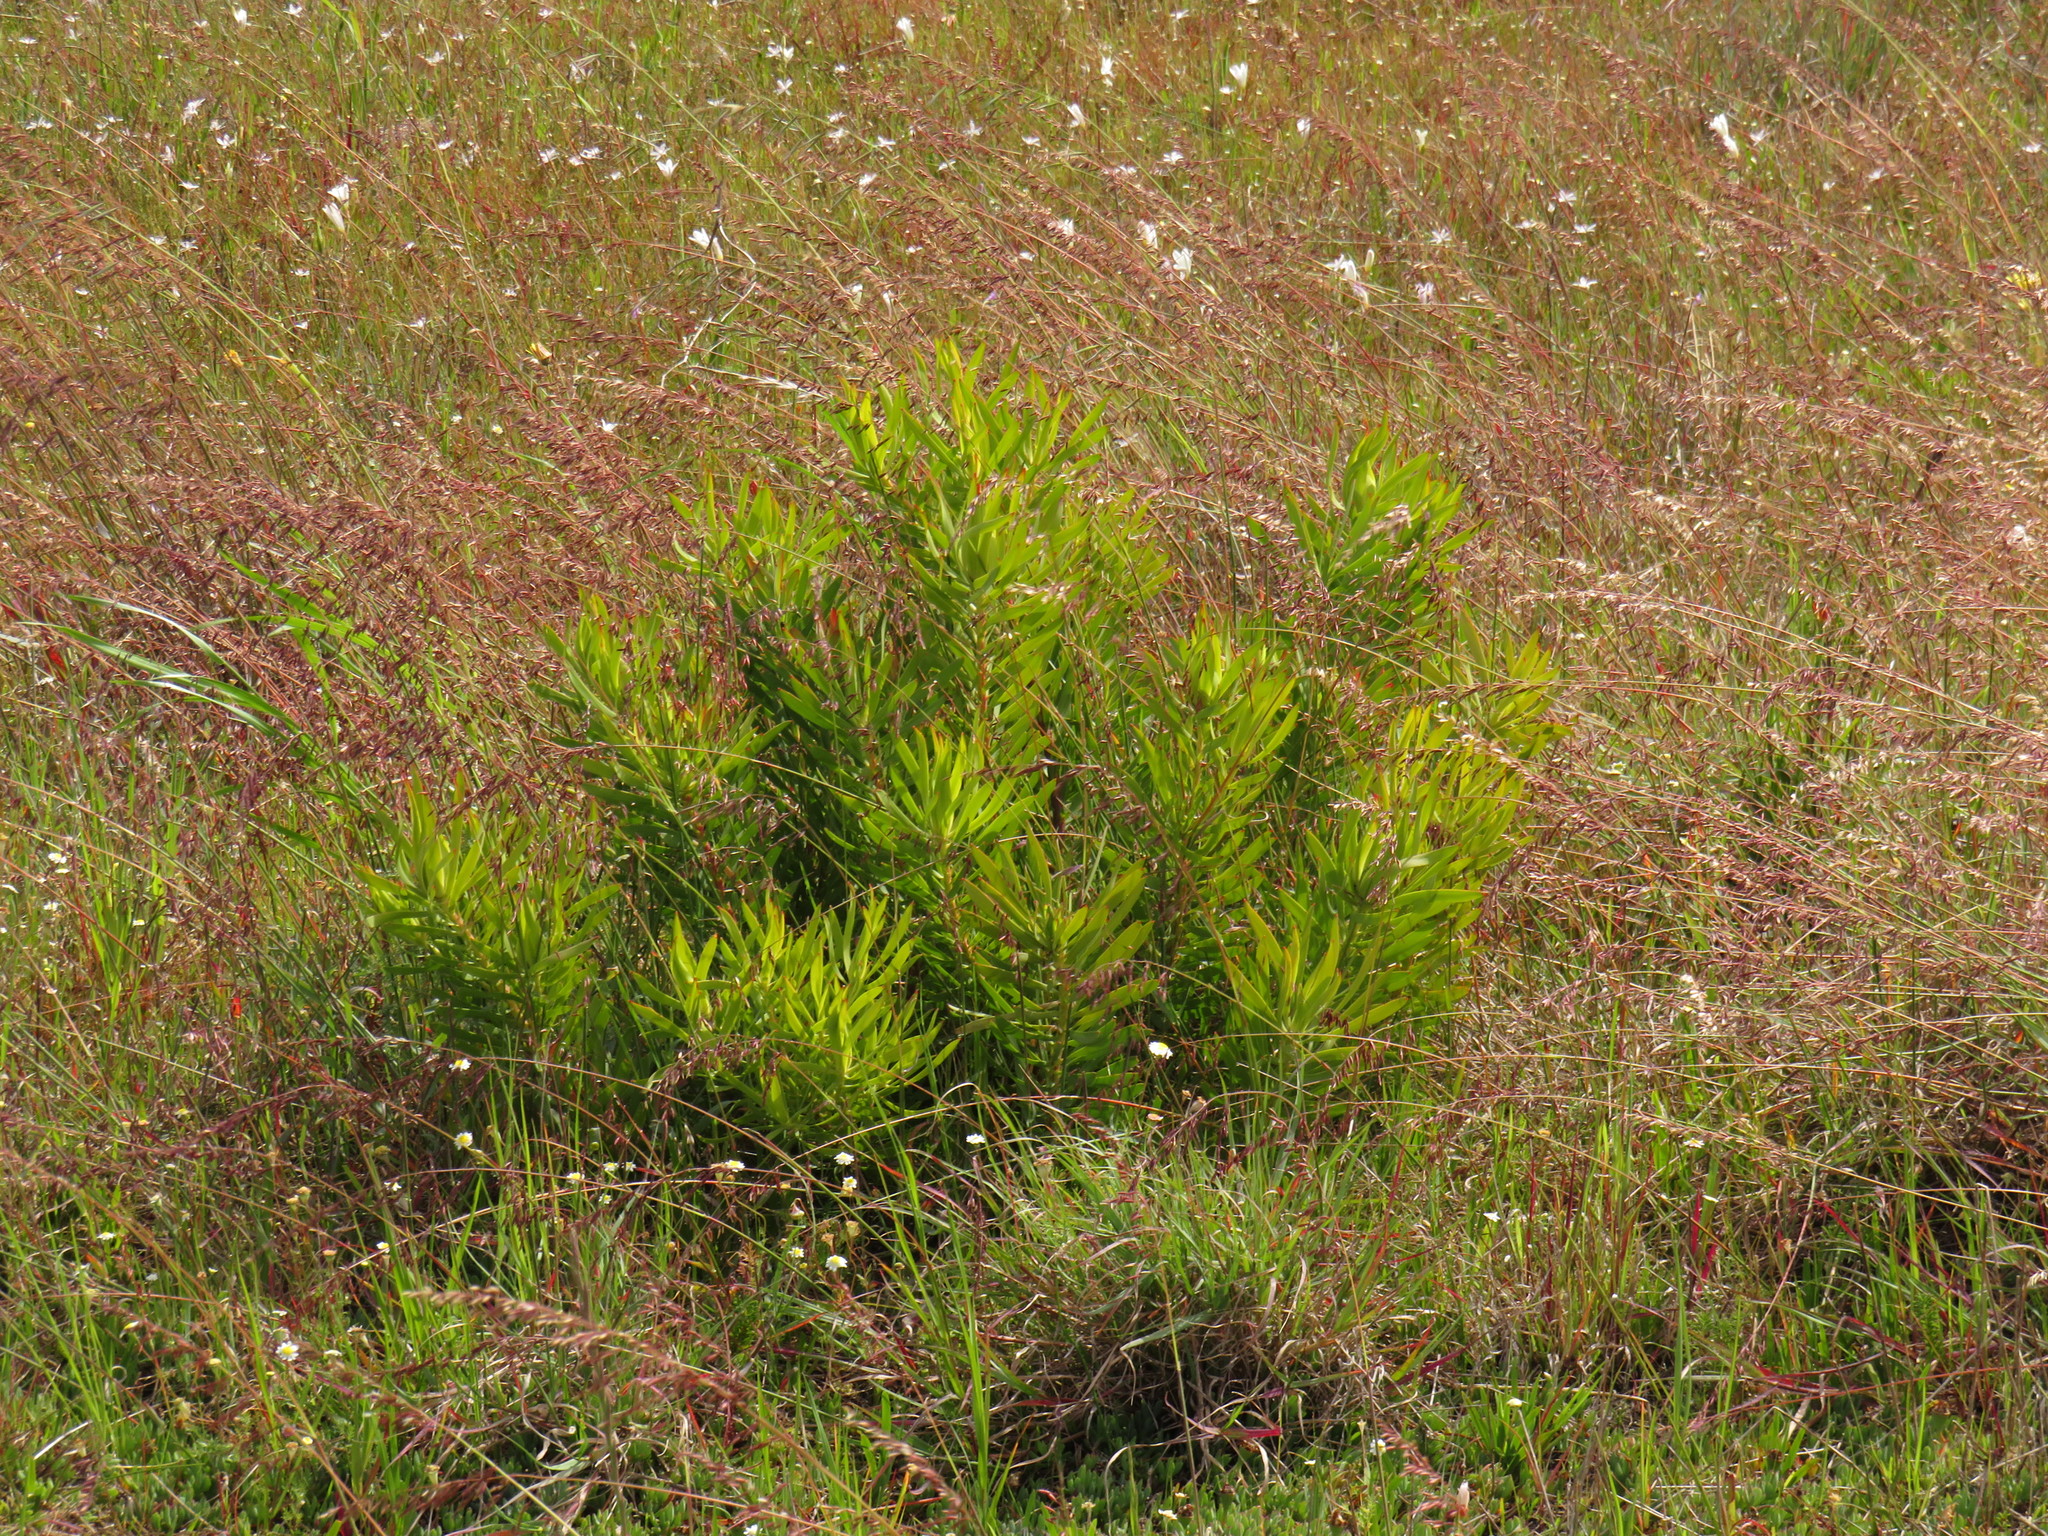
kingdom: Plantae
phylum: Tracheophyta
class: Magnoliopsida
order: Proteales
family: Proteaceae
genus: Leucadendron
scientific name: Leucadendron salignum
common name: Common sunshine conebush
